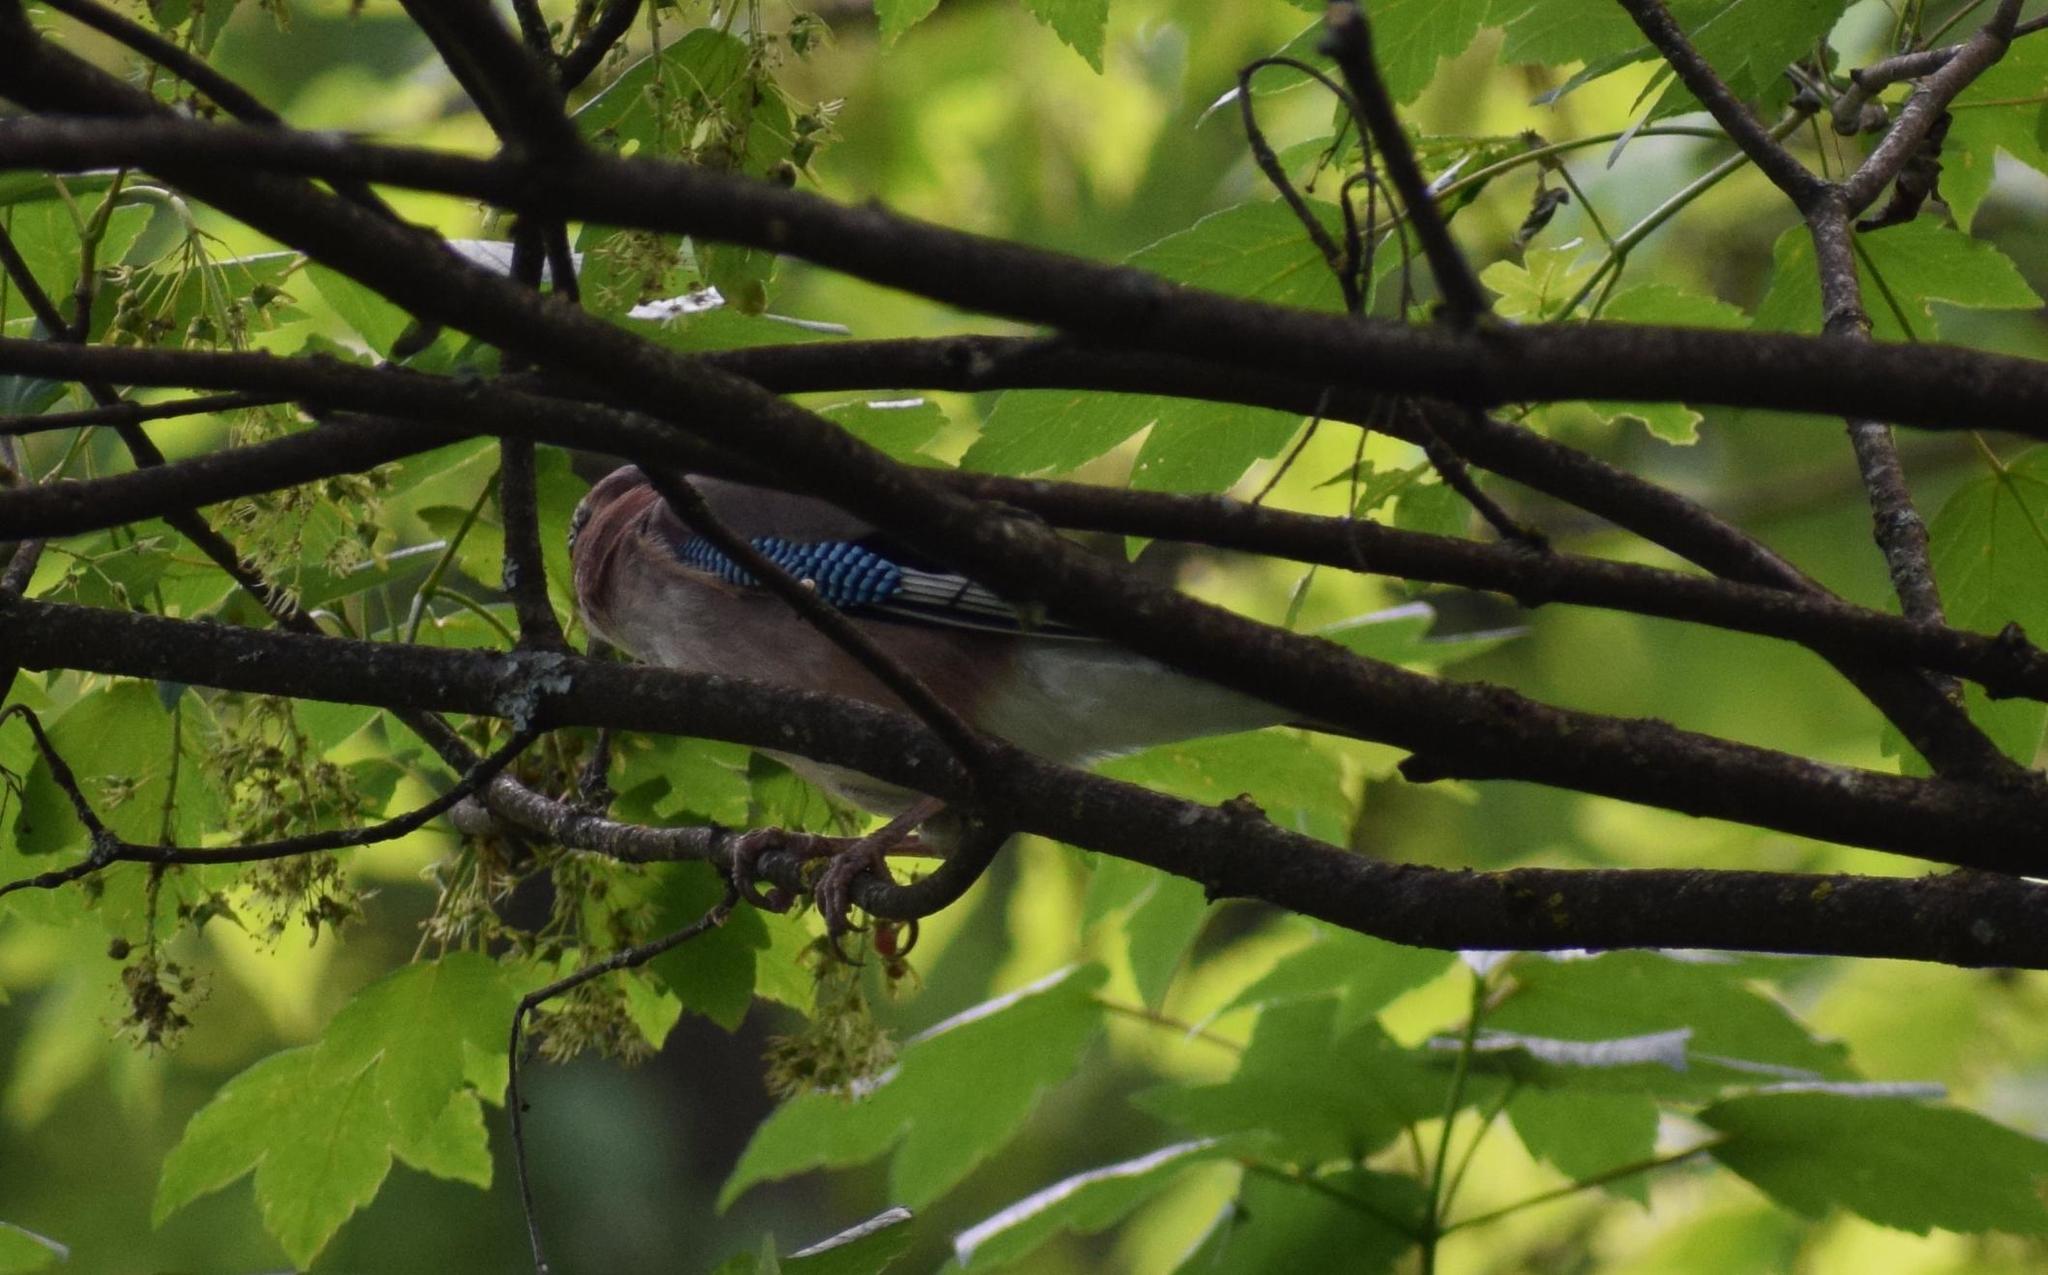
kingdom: Animalia
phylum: Chordata
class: Aves
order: Passeriformes
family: Corvidae
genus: Garrulus
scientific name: Garrulus glandarius
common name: Eurasian jay
